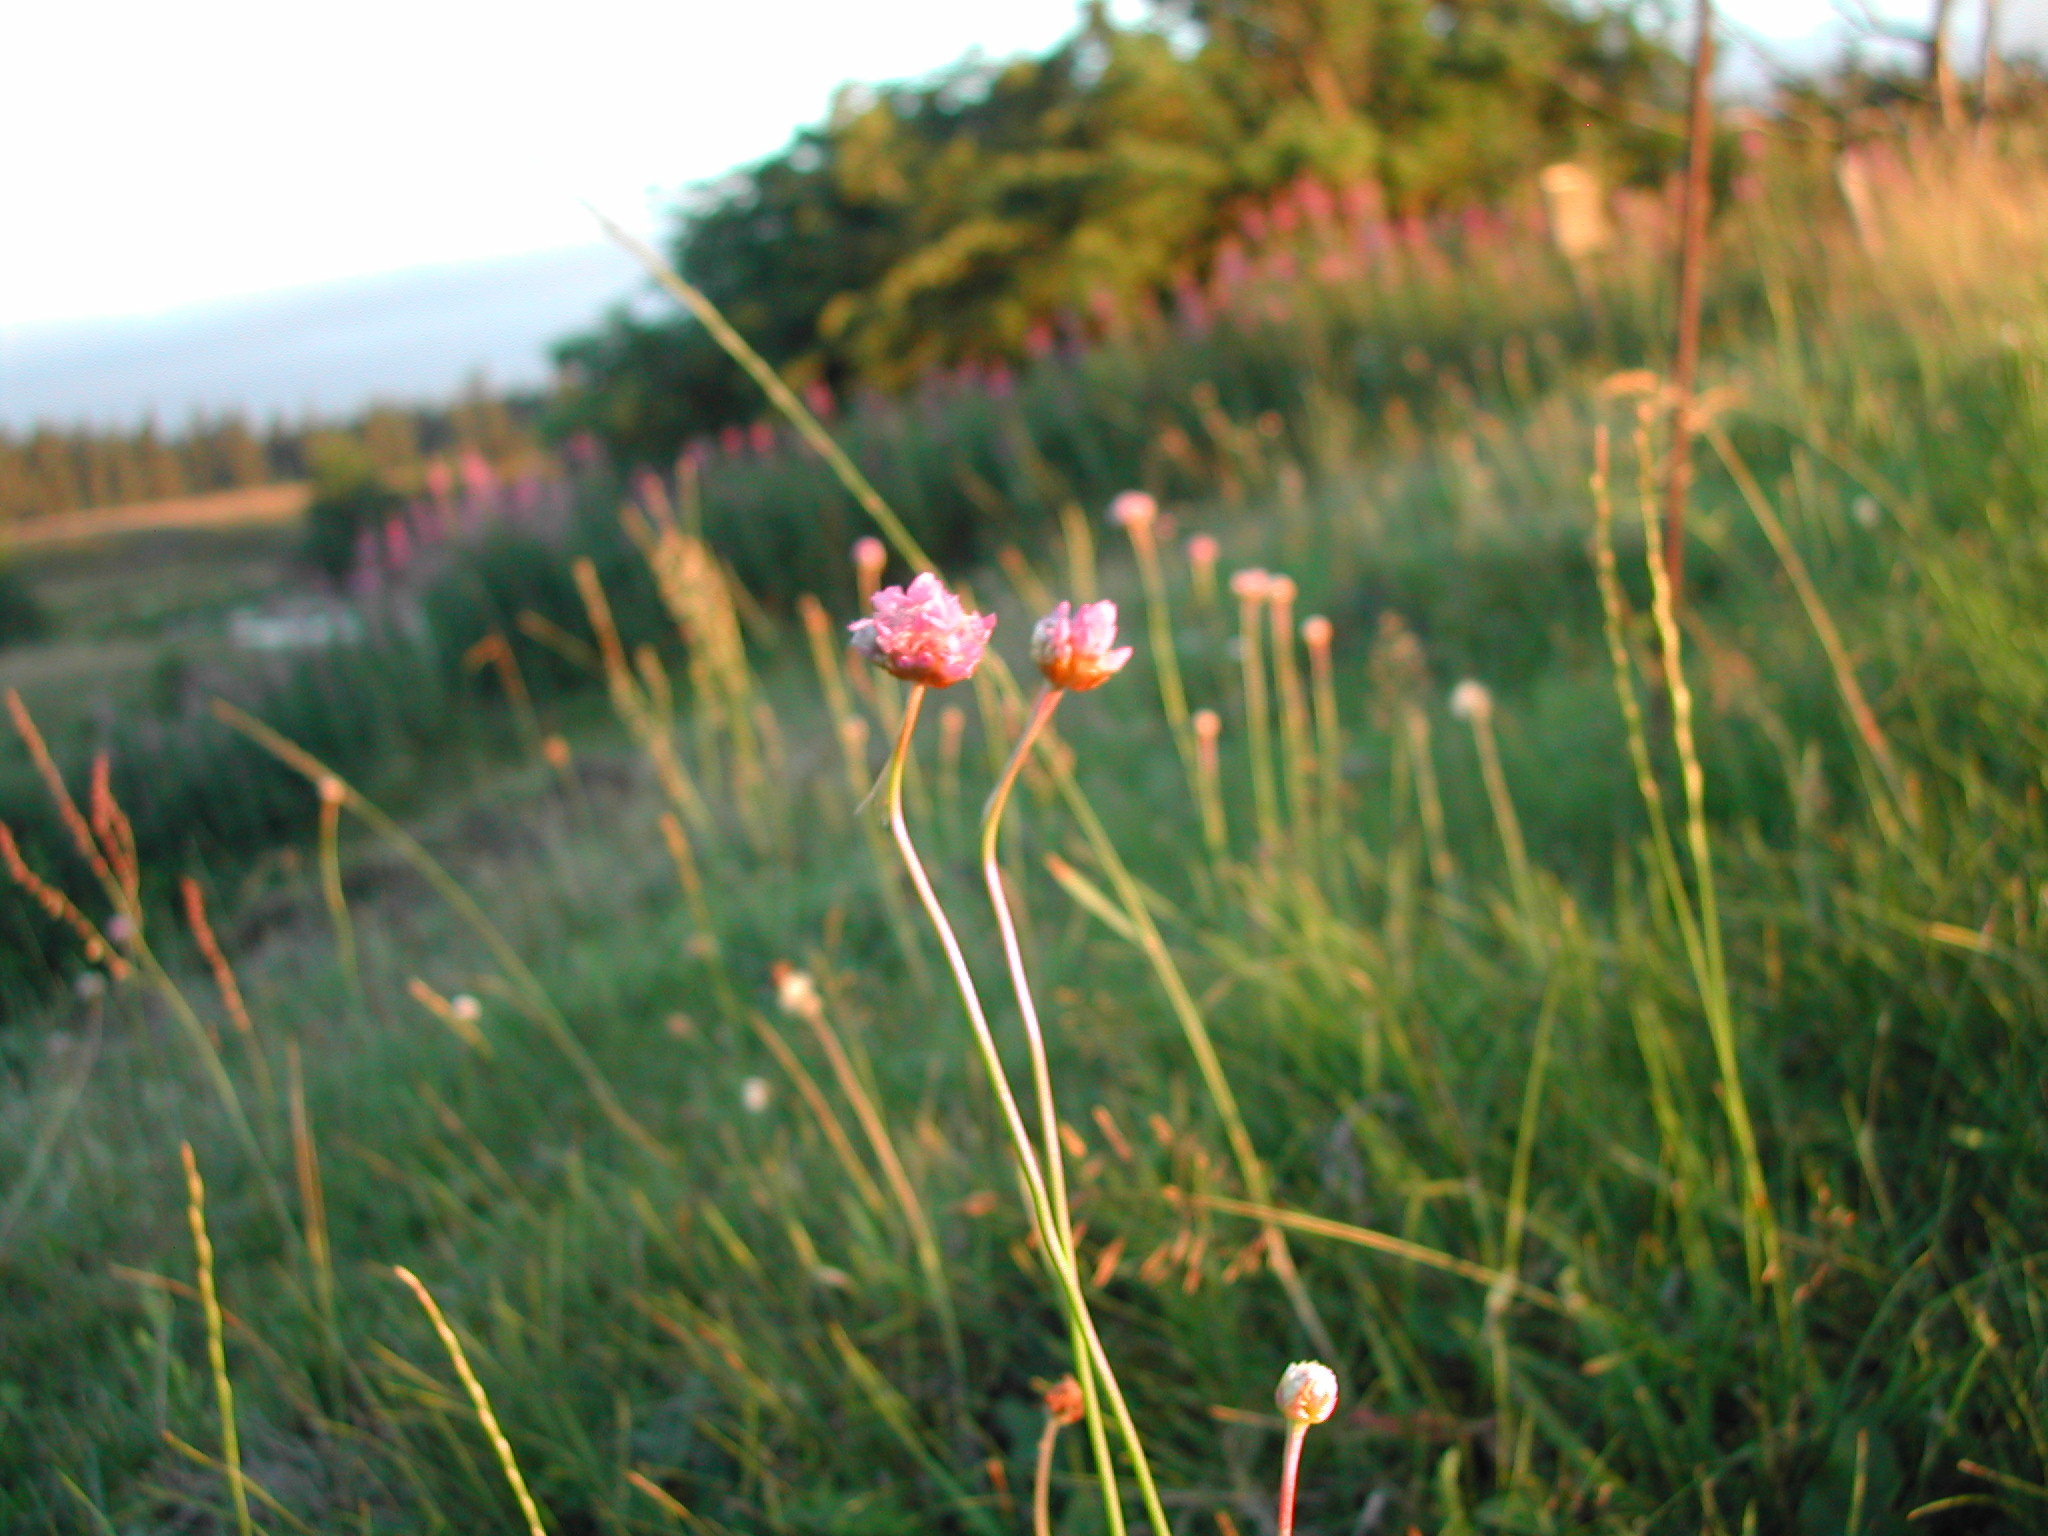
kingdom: Plantae
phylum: Tracheophyta
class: Magnoliopsida
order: Caryophyllales
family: Plumbaginaceae
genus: Armeria
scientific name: Armeria maritima
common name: Thrift
